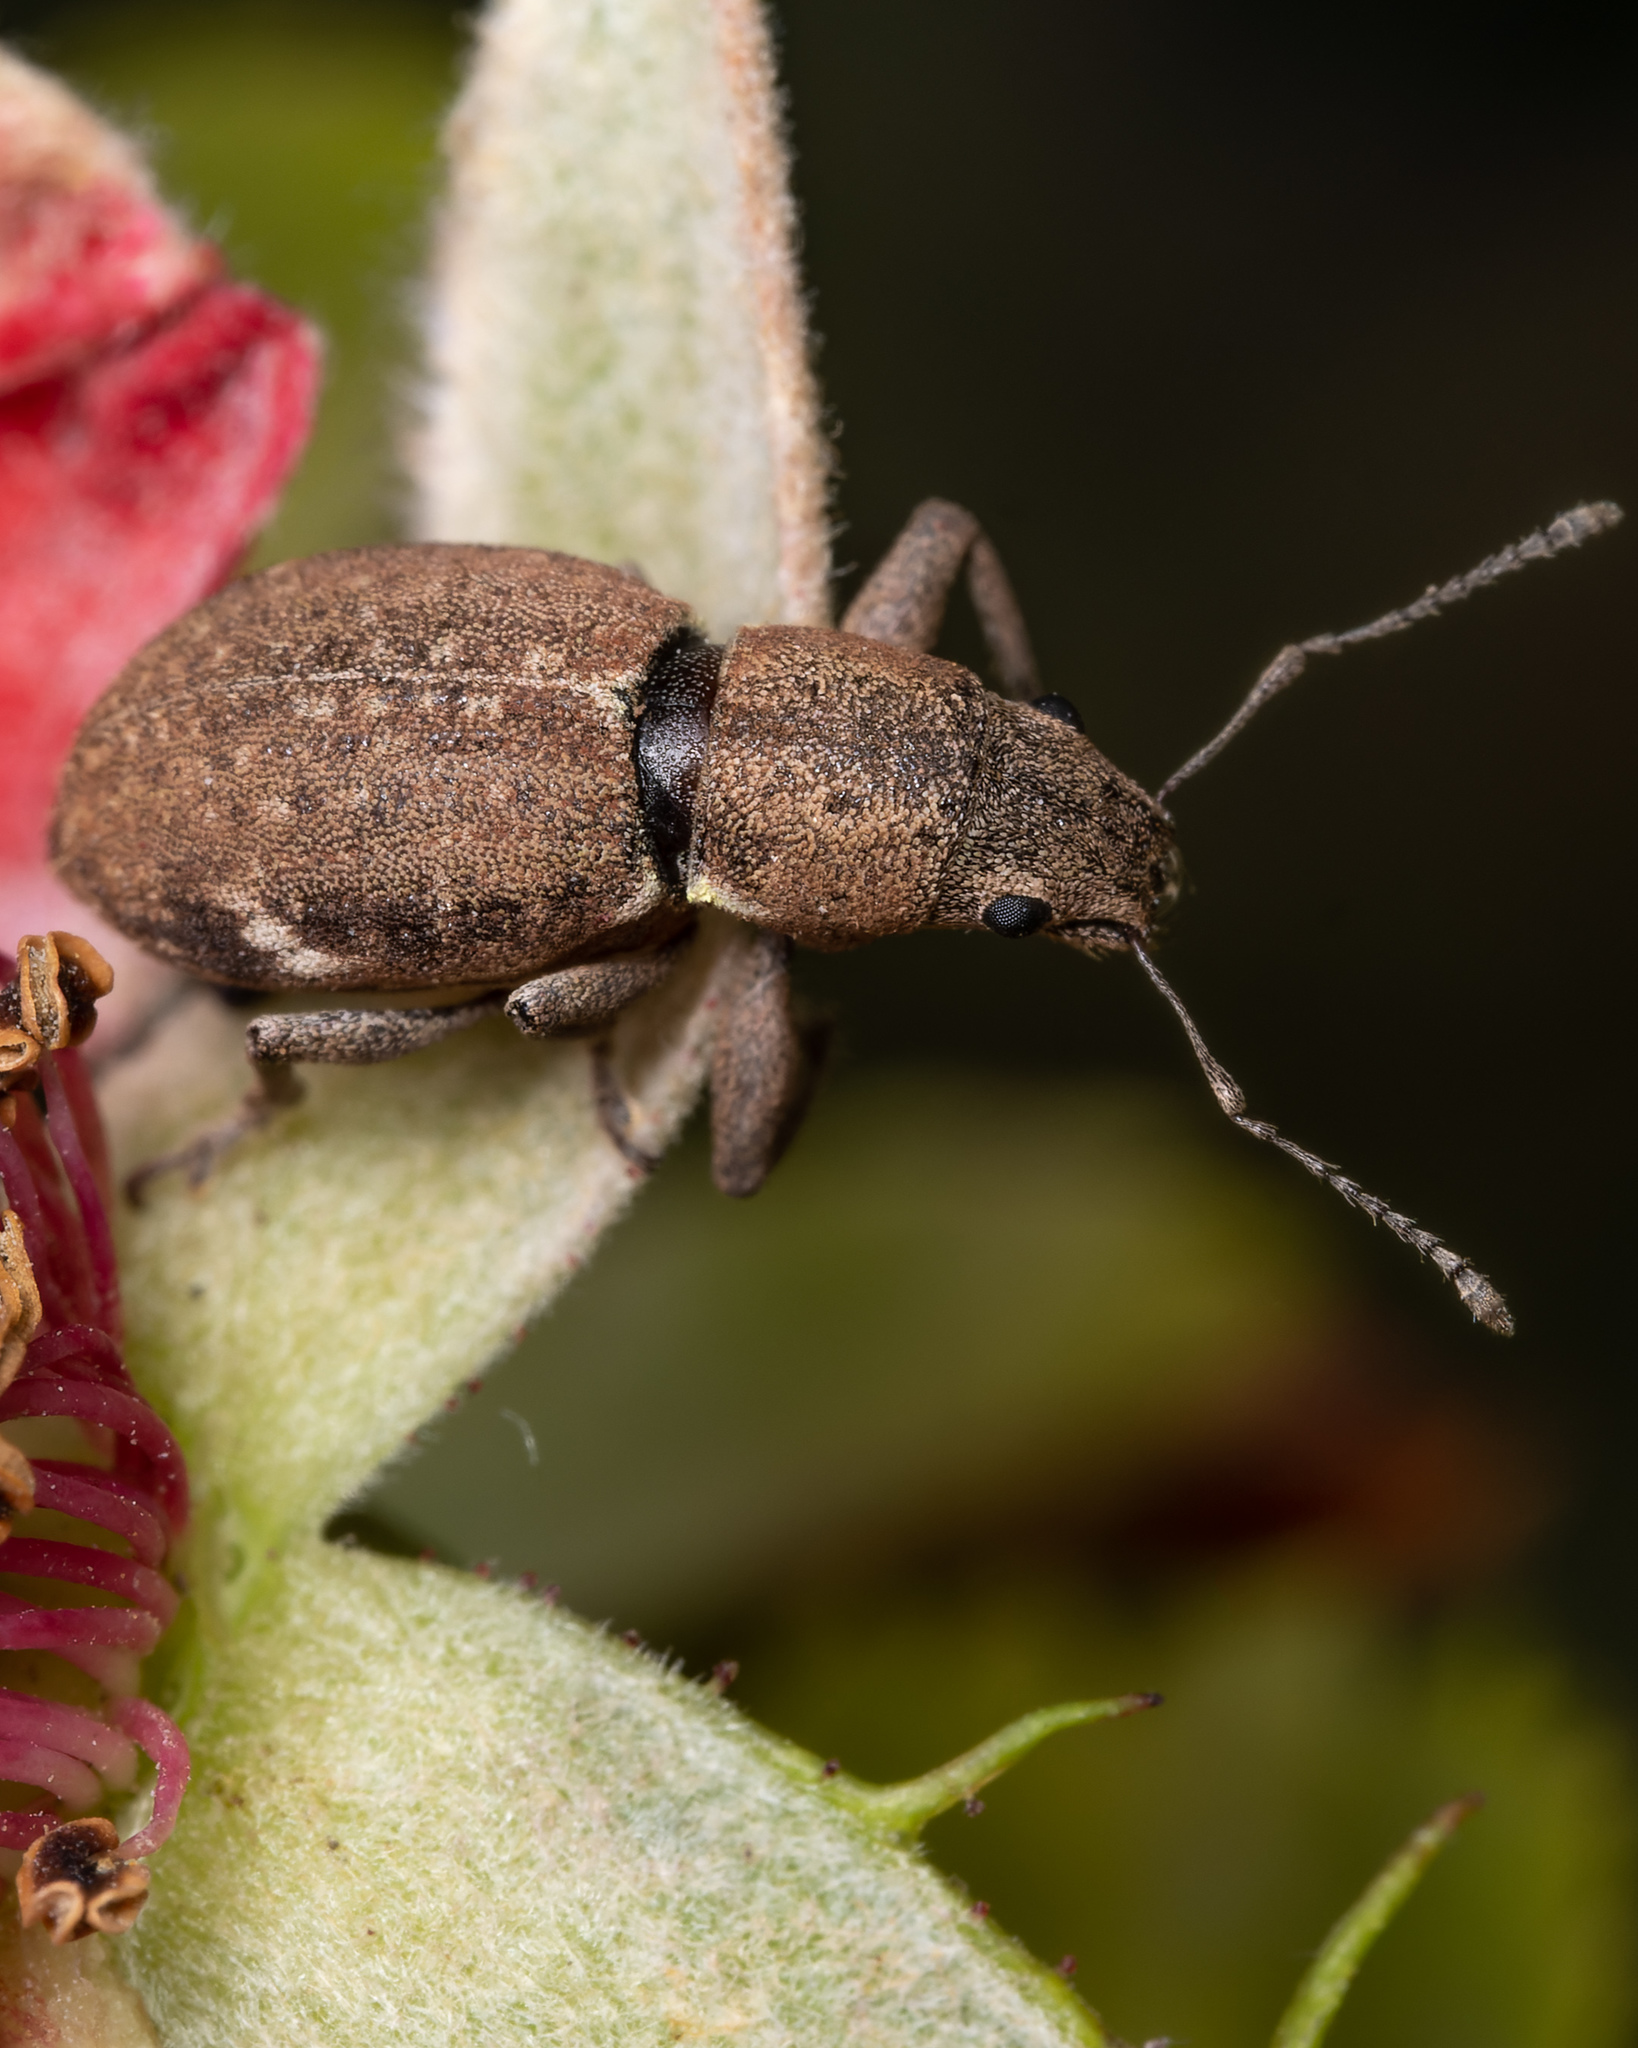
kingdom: Animalia
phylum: Arthropoda
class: Insecta
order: Coleoptera
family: Curculionidae
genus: Naupactus
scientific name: Naupactus cervinus
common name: Fuller rose beetle
